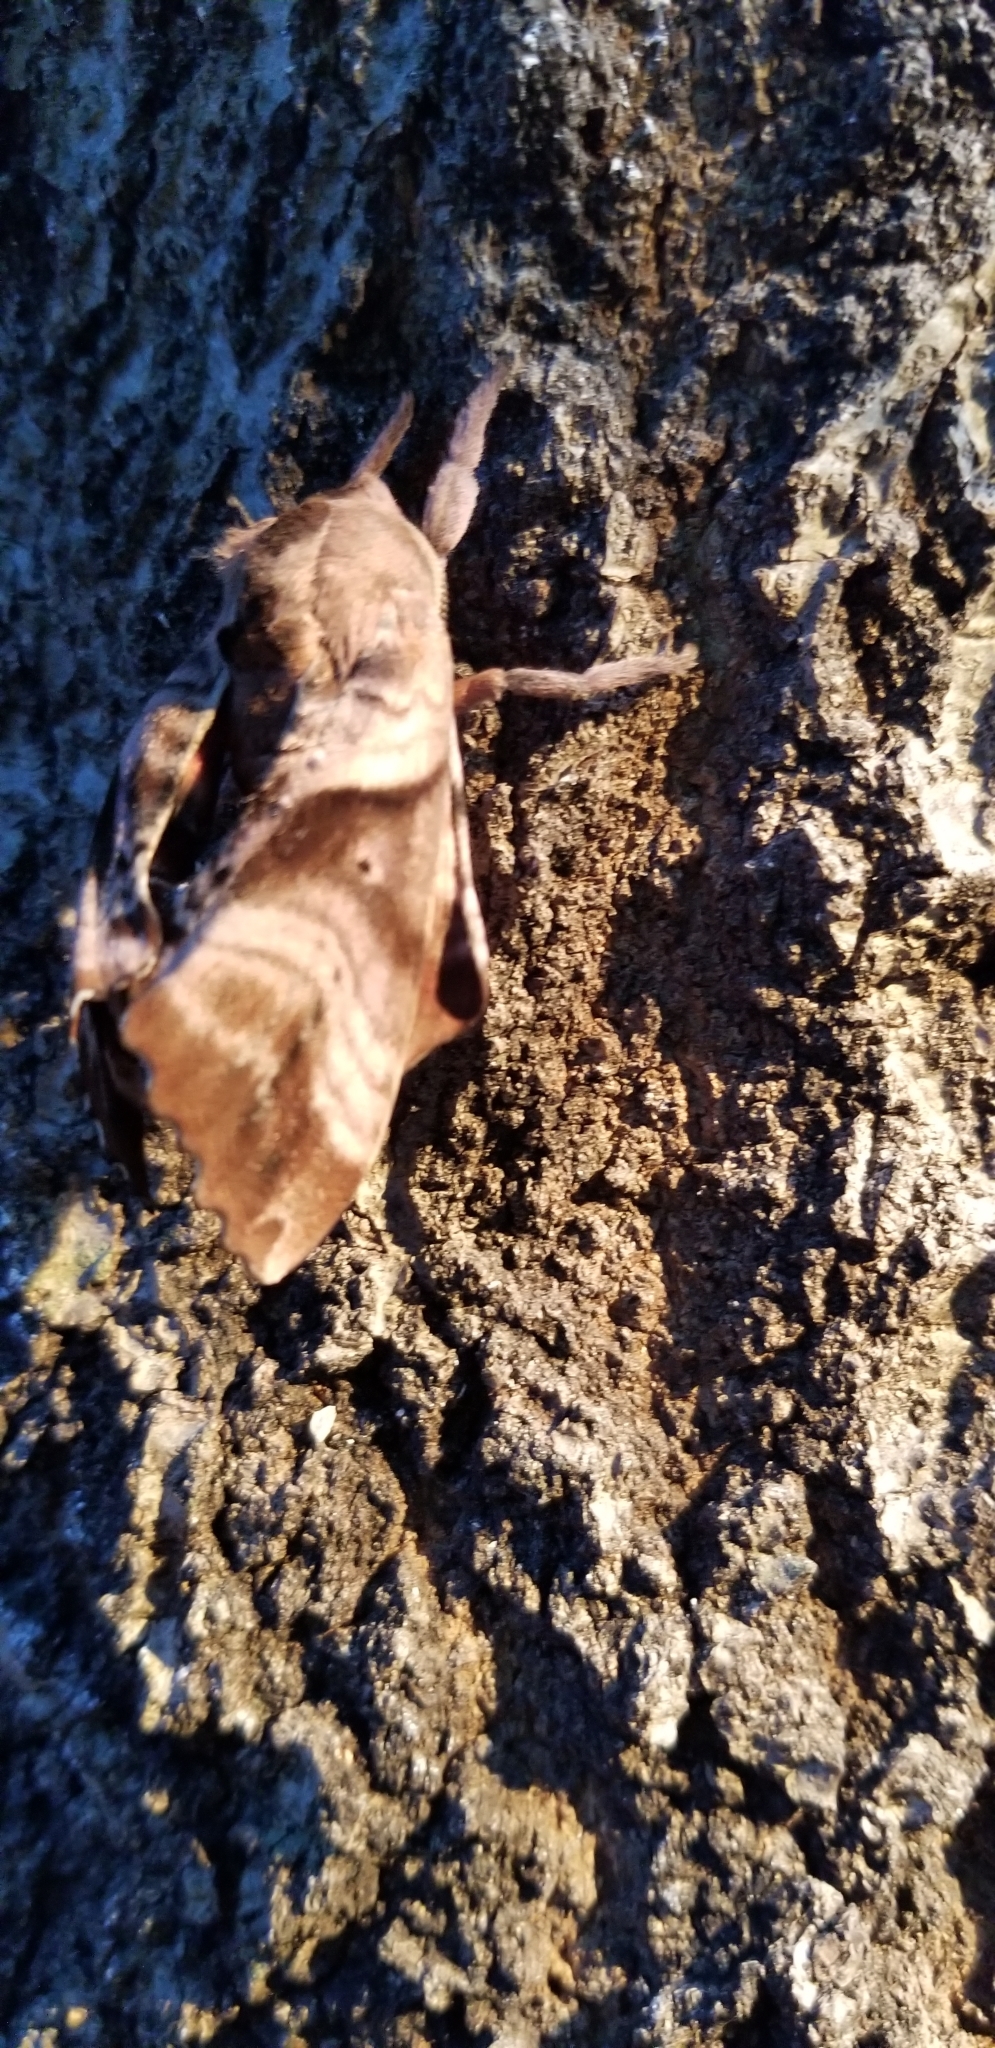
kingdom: Animalia
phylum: Arthropoda
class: Insecta
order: Lepidoptera
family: Sphingidae
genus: Paonias
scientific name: Paonias excaecata
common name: Blind-eyed sphinx
